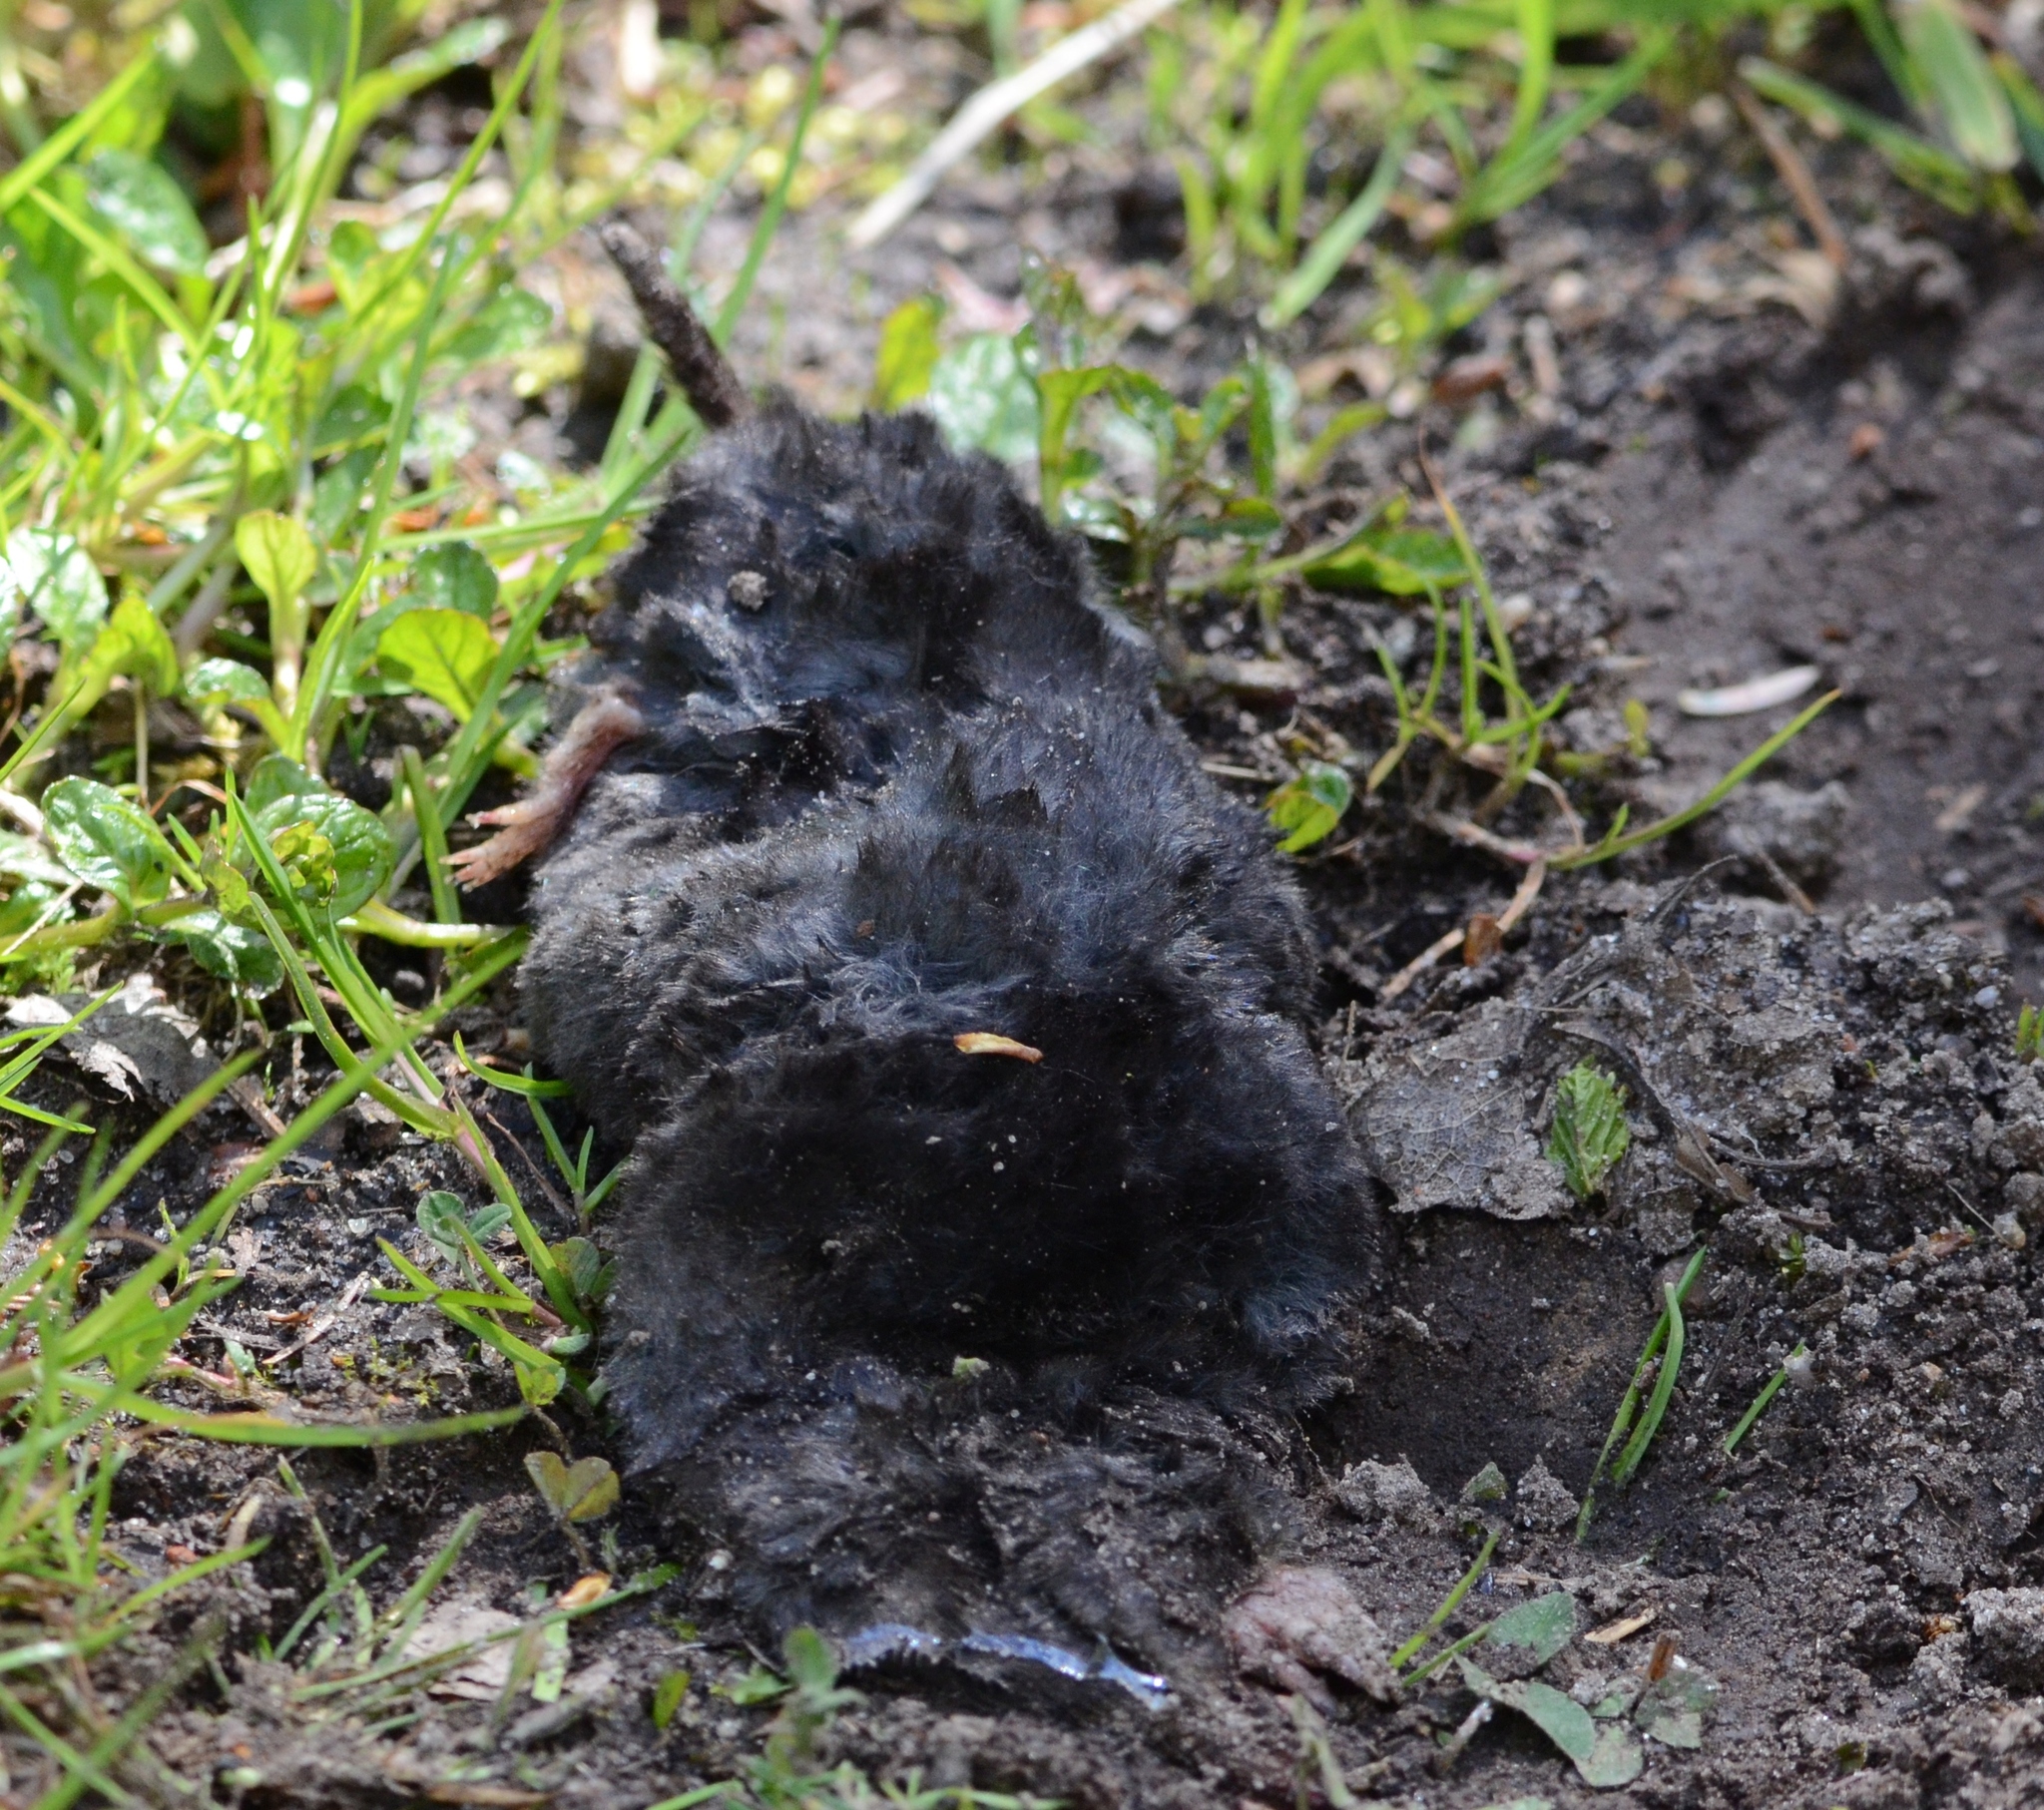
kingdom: Animalia
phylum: Chordata
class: Mammalia
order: Soricomorpha
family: Talpidae
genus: Talpa
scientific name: Talpa europaea
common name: European mole
